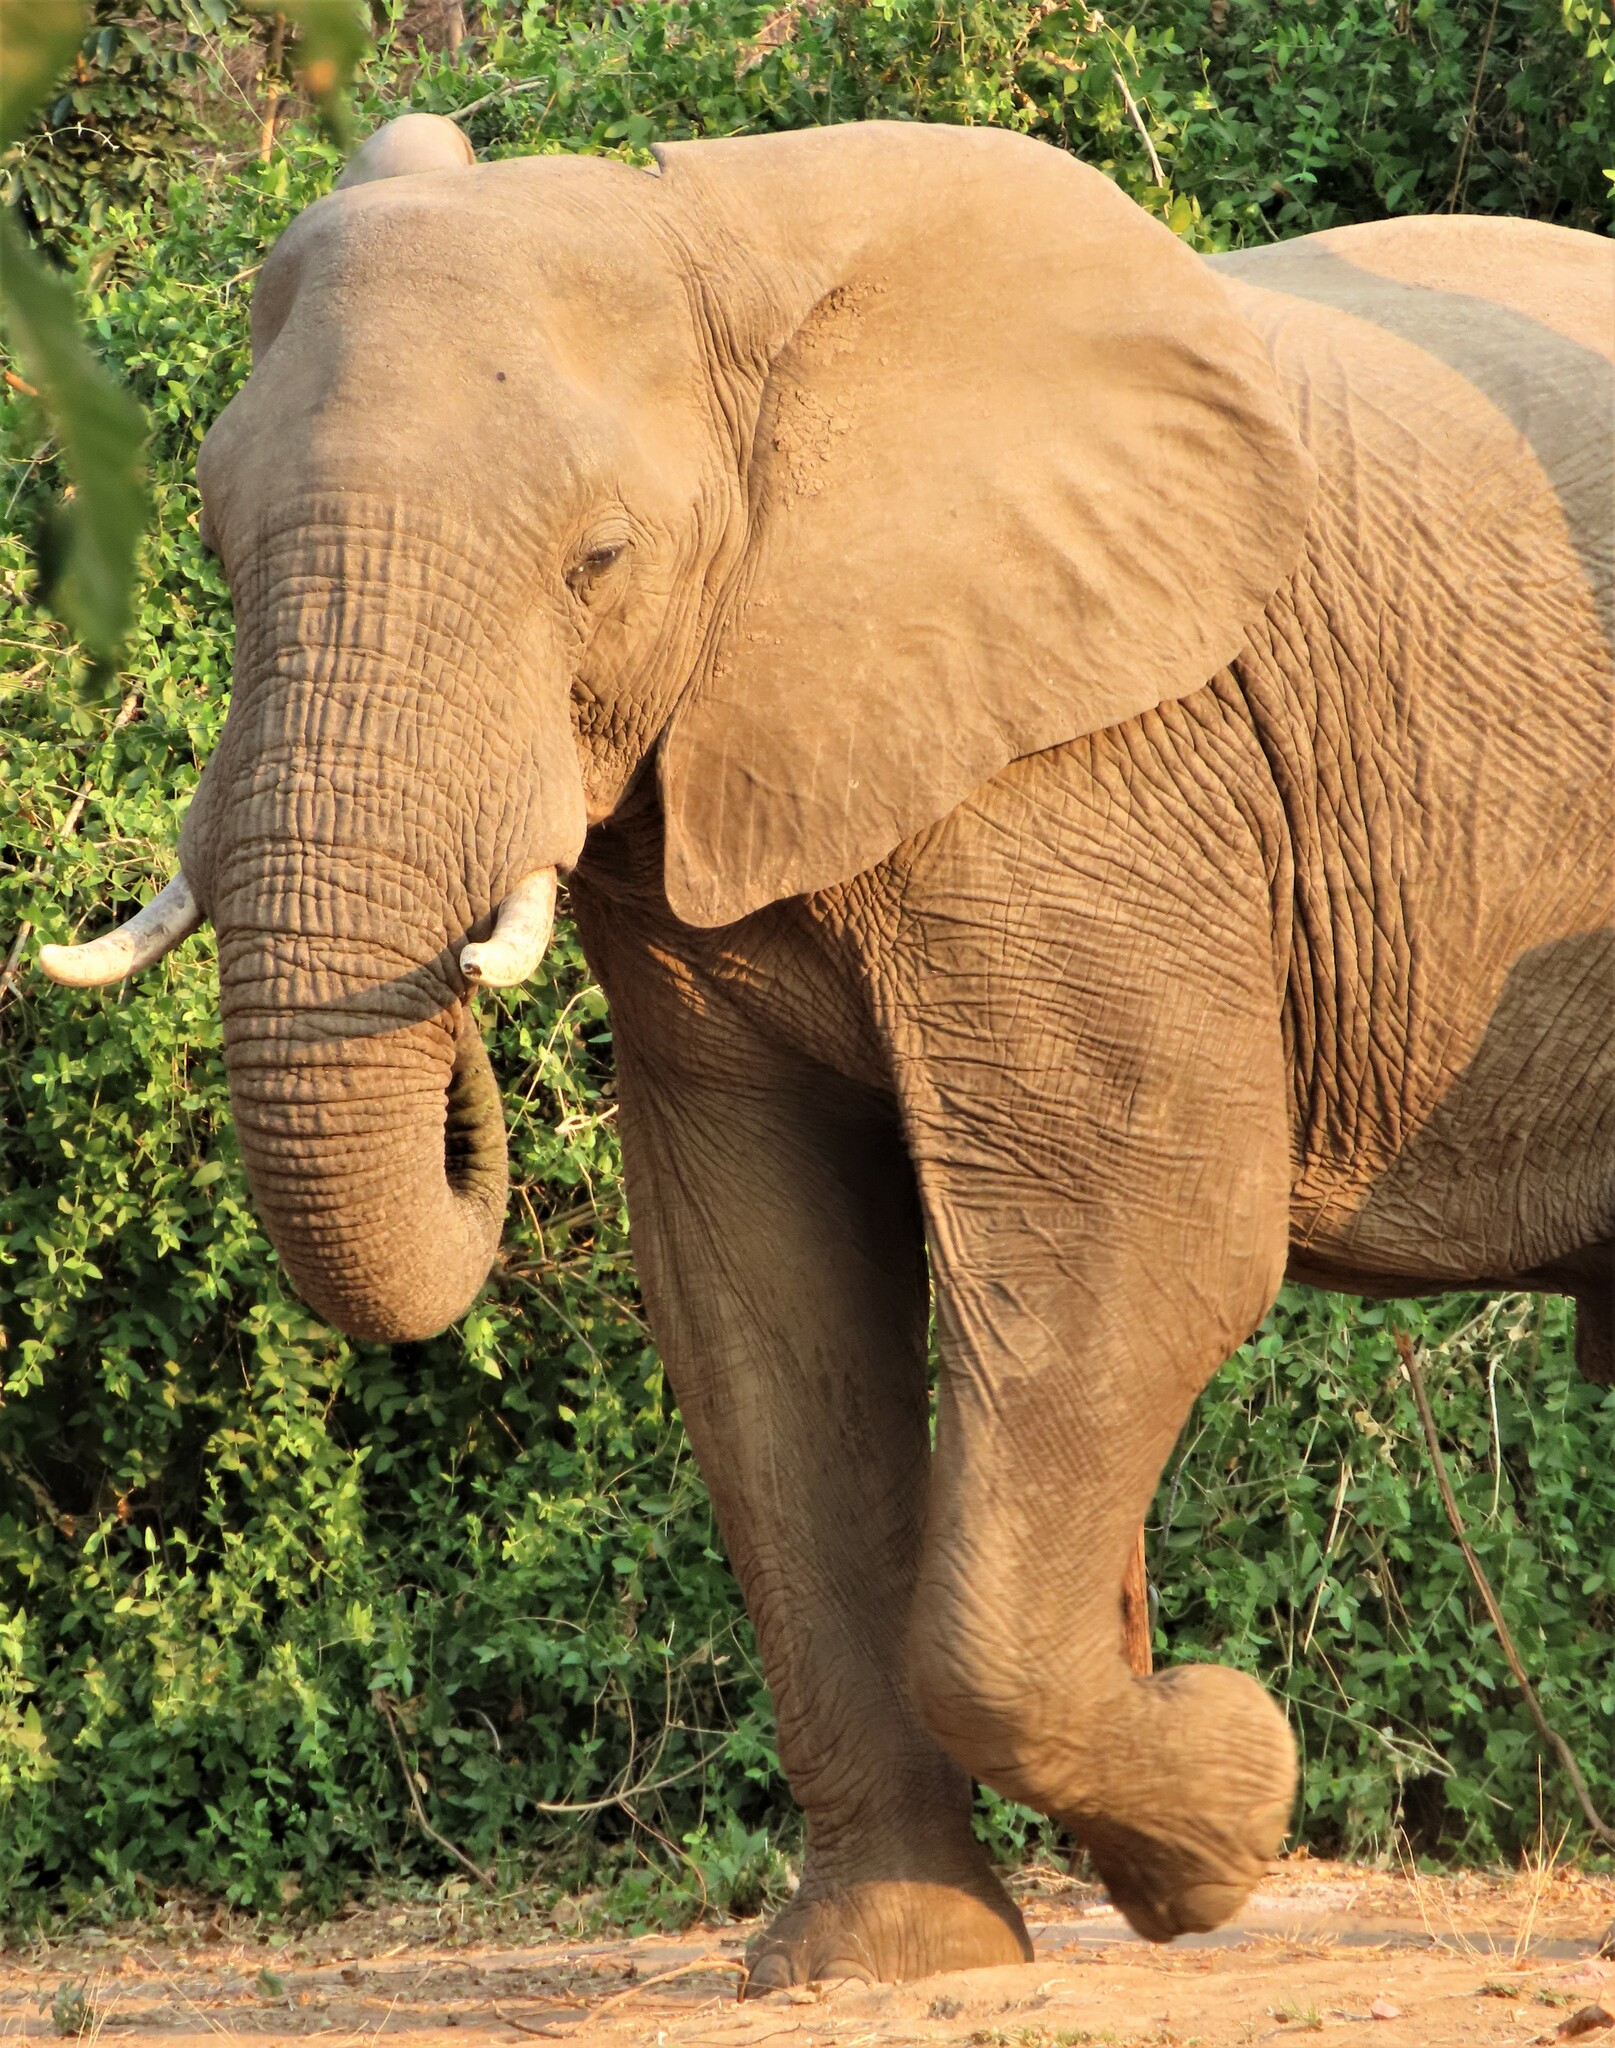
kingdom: Animalia
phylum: Chordata
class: Mammalia
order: Proboscidea
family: Elephantidae
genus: Loxodonta
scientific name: Loxodonta africana
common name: African elephant
